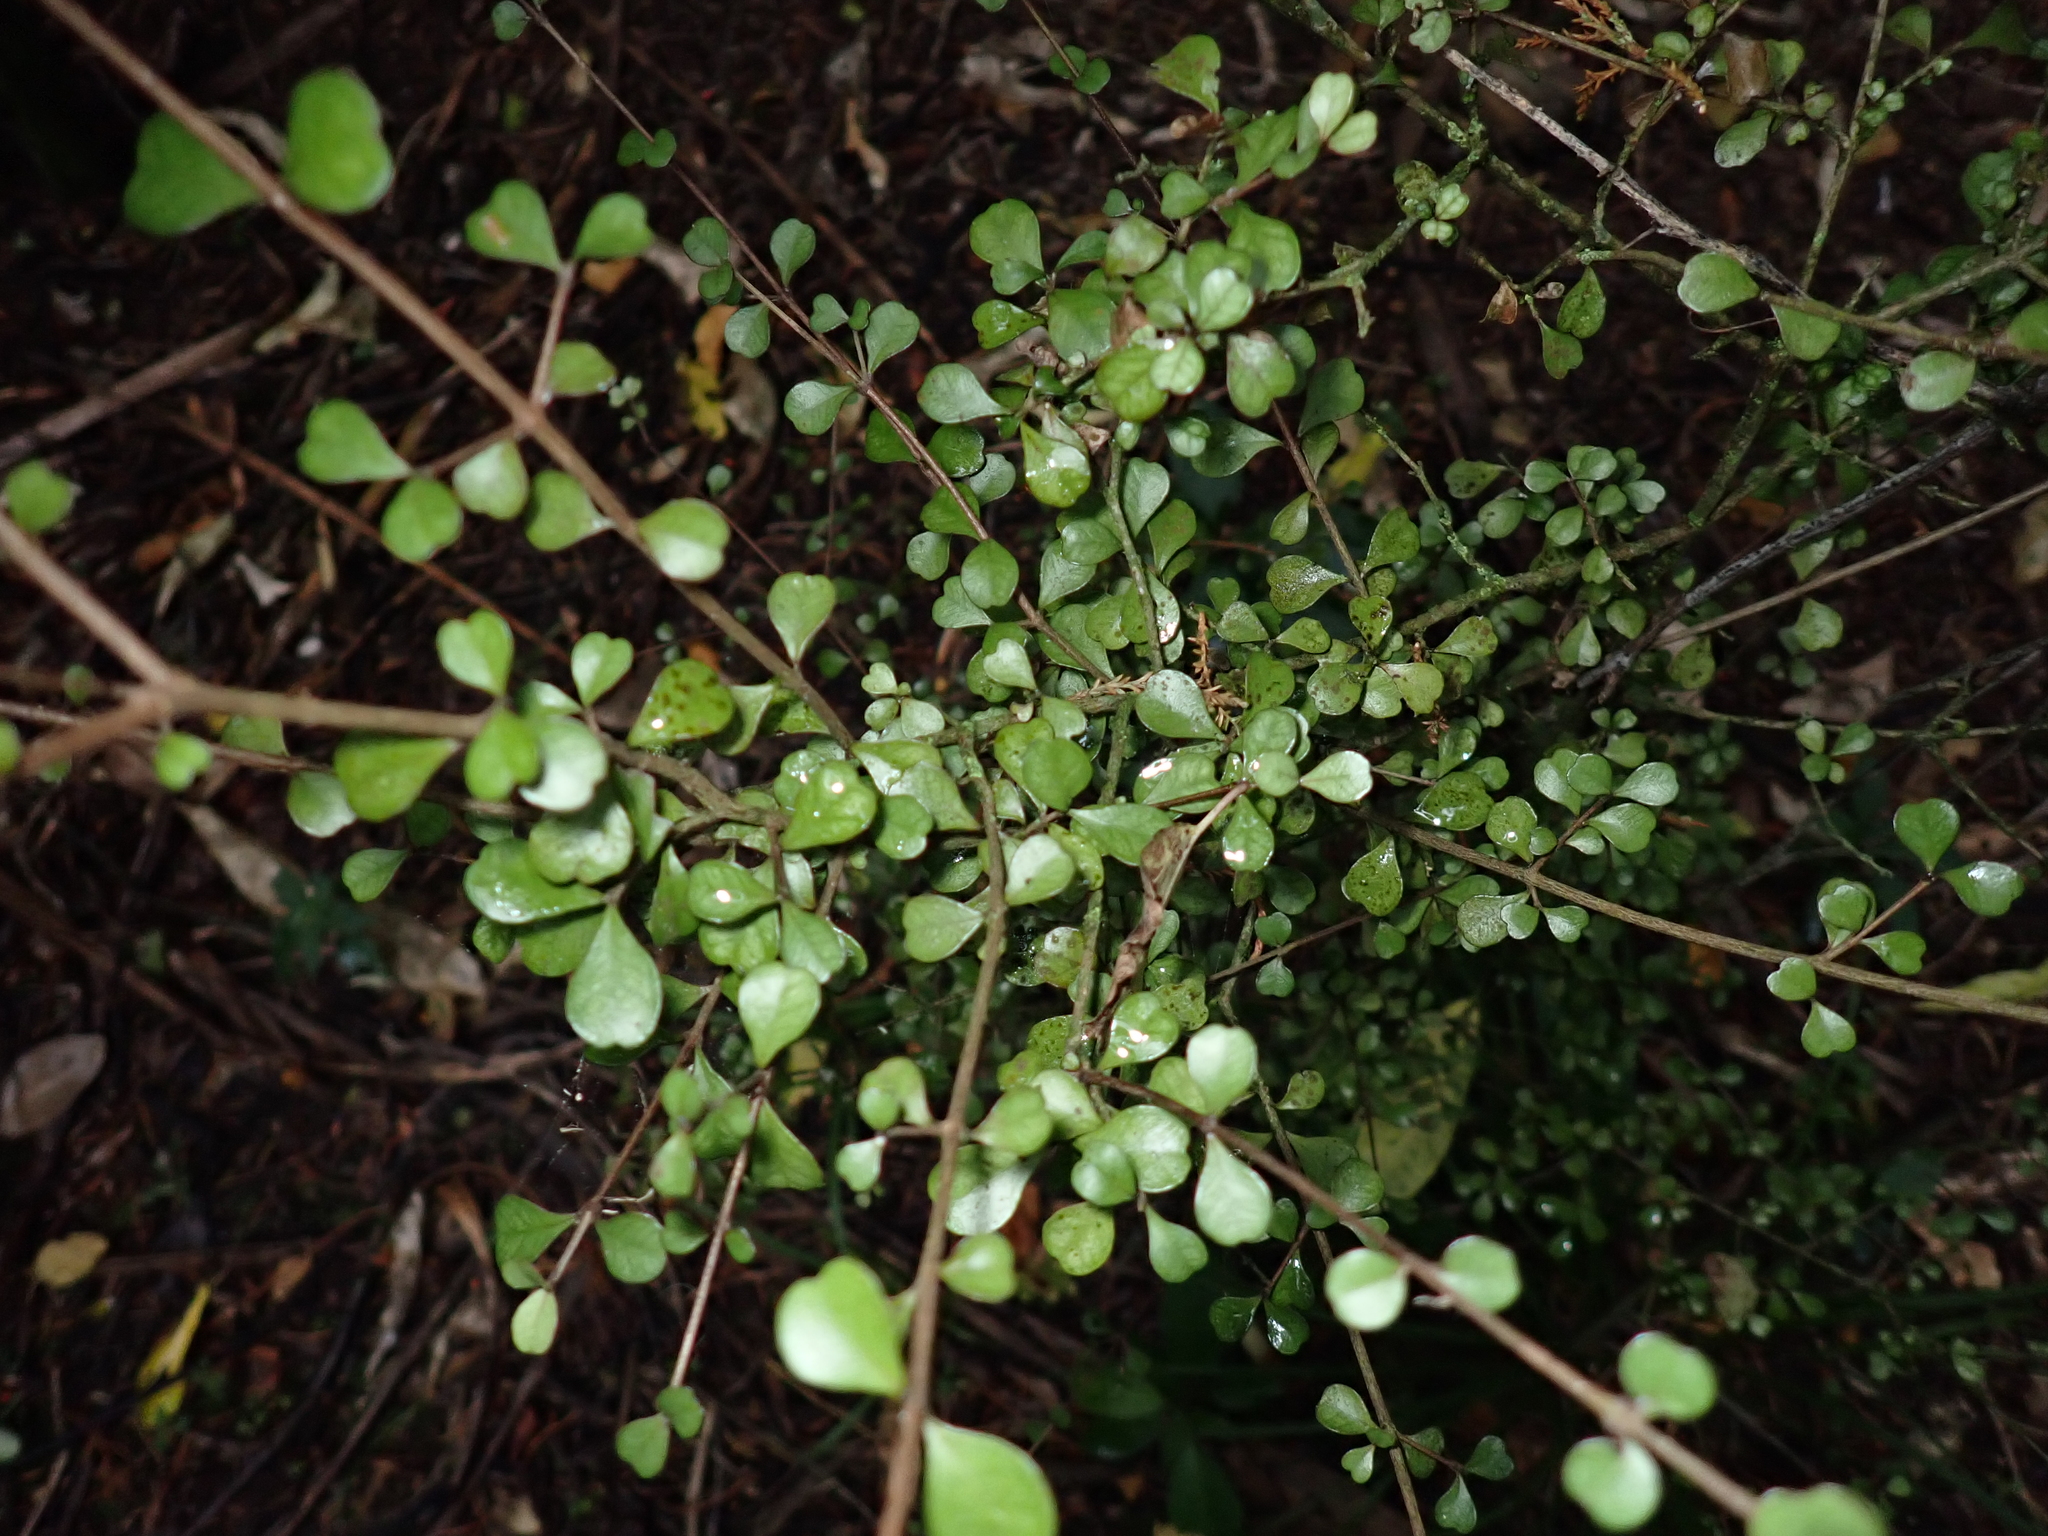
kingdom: Plantae
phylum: Tracheophyta
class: Magnoliopsida
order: Myrtales
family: Myrtaceae
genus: Lophomyrtus
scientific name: Lophomyrtus obcordata
